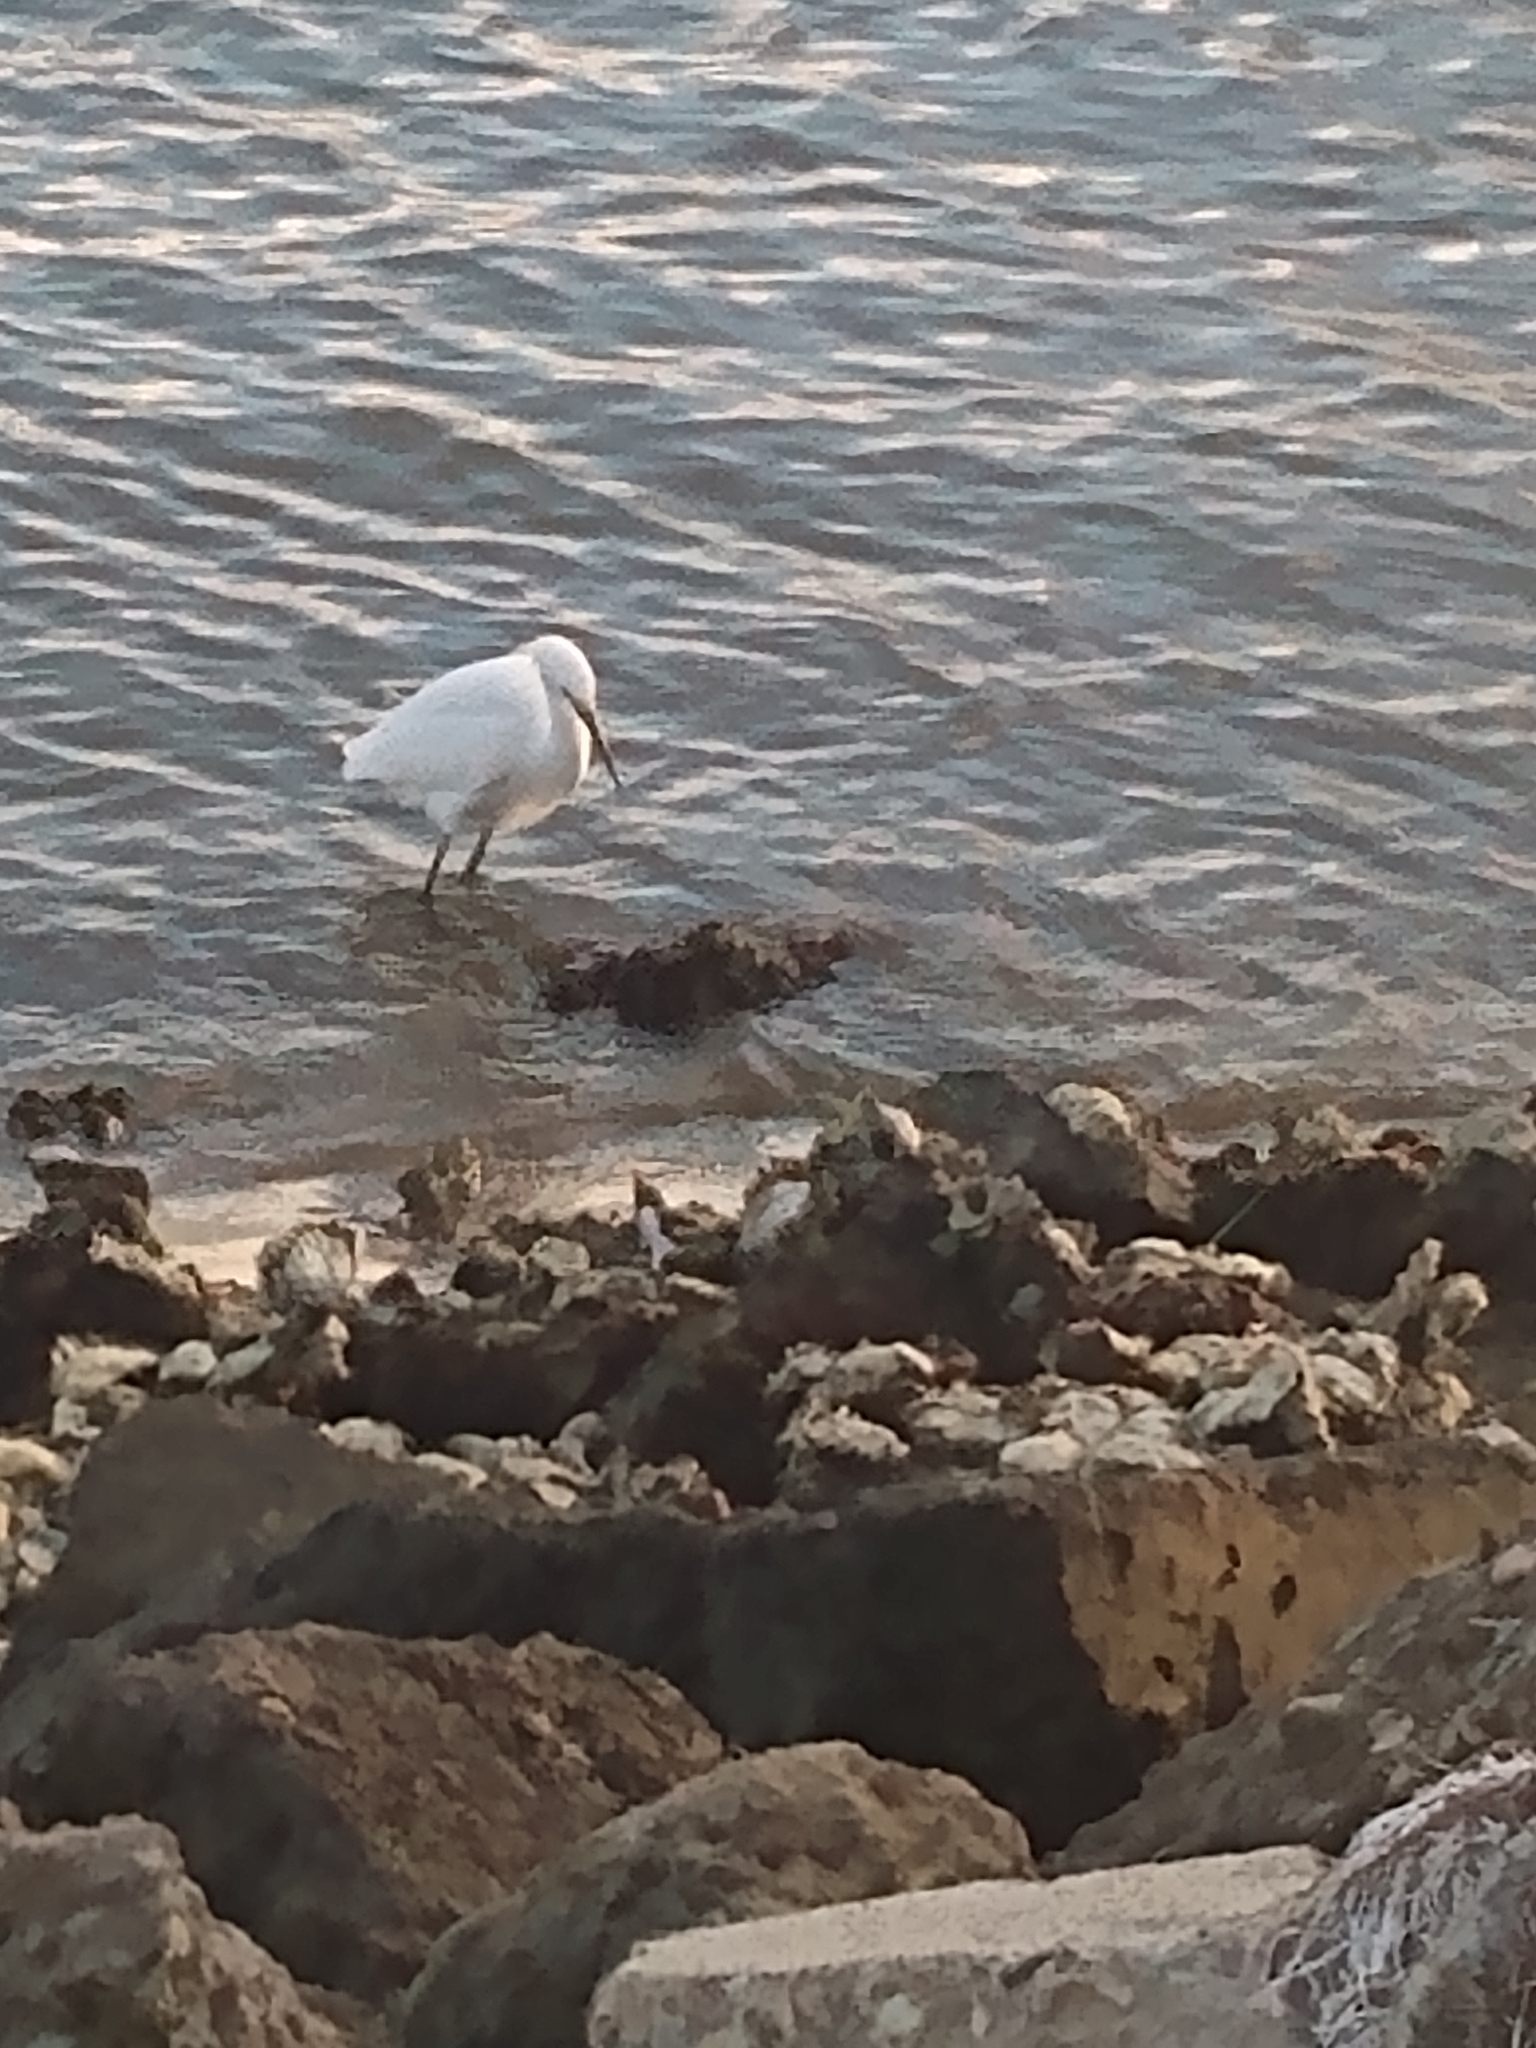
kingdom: Animalia
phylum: Chordata
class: Aves
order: Pelecaniformes
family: Ardeidae
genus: Egretta
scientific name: Egretta thula
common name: Snowy egret
